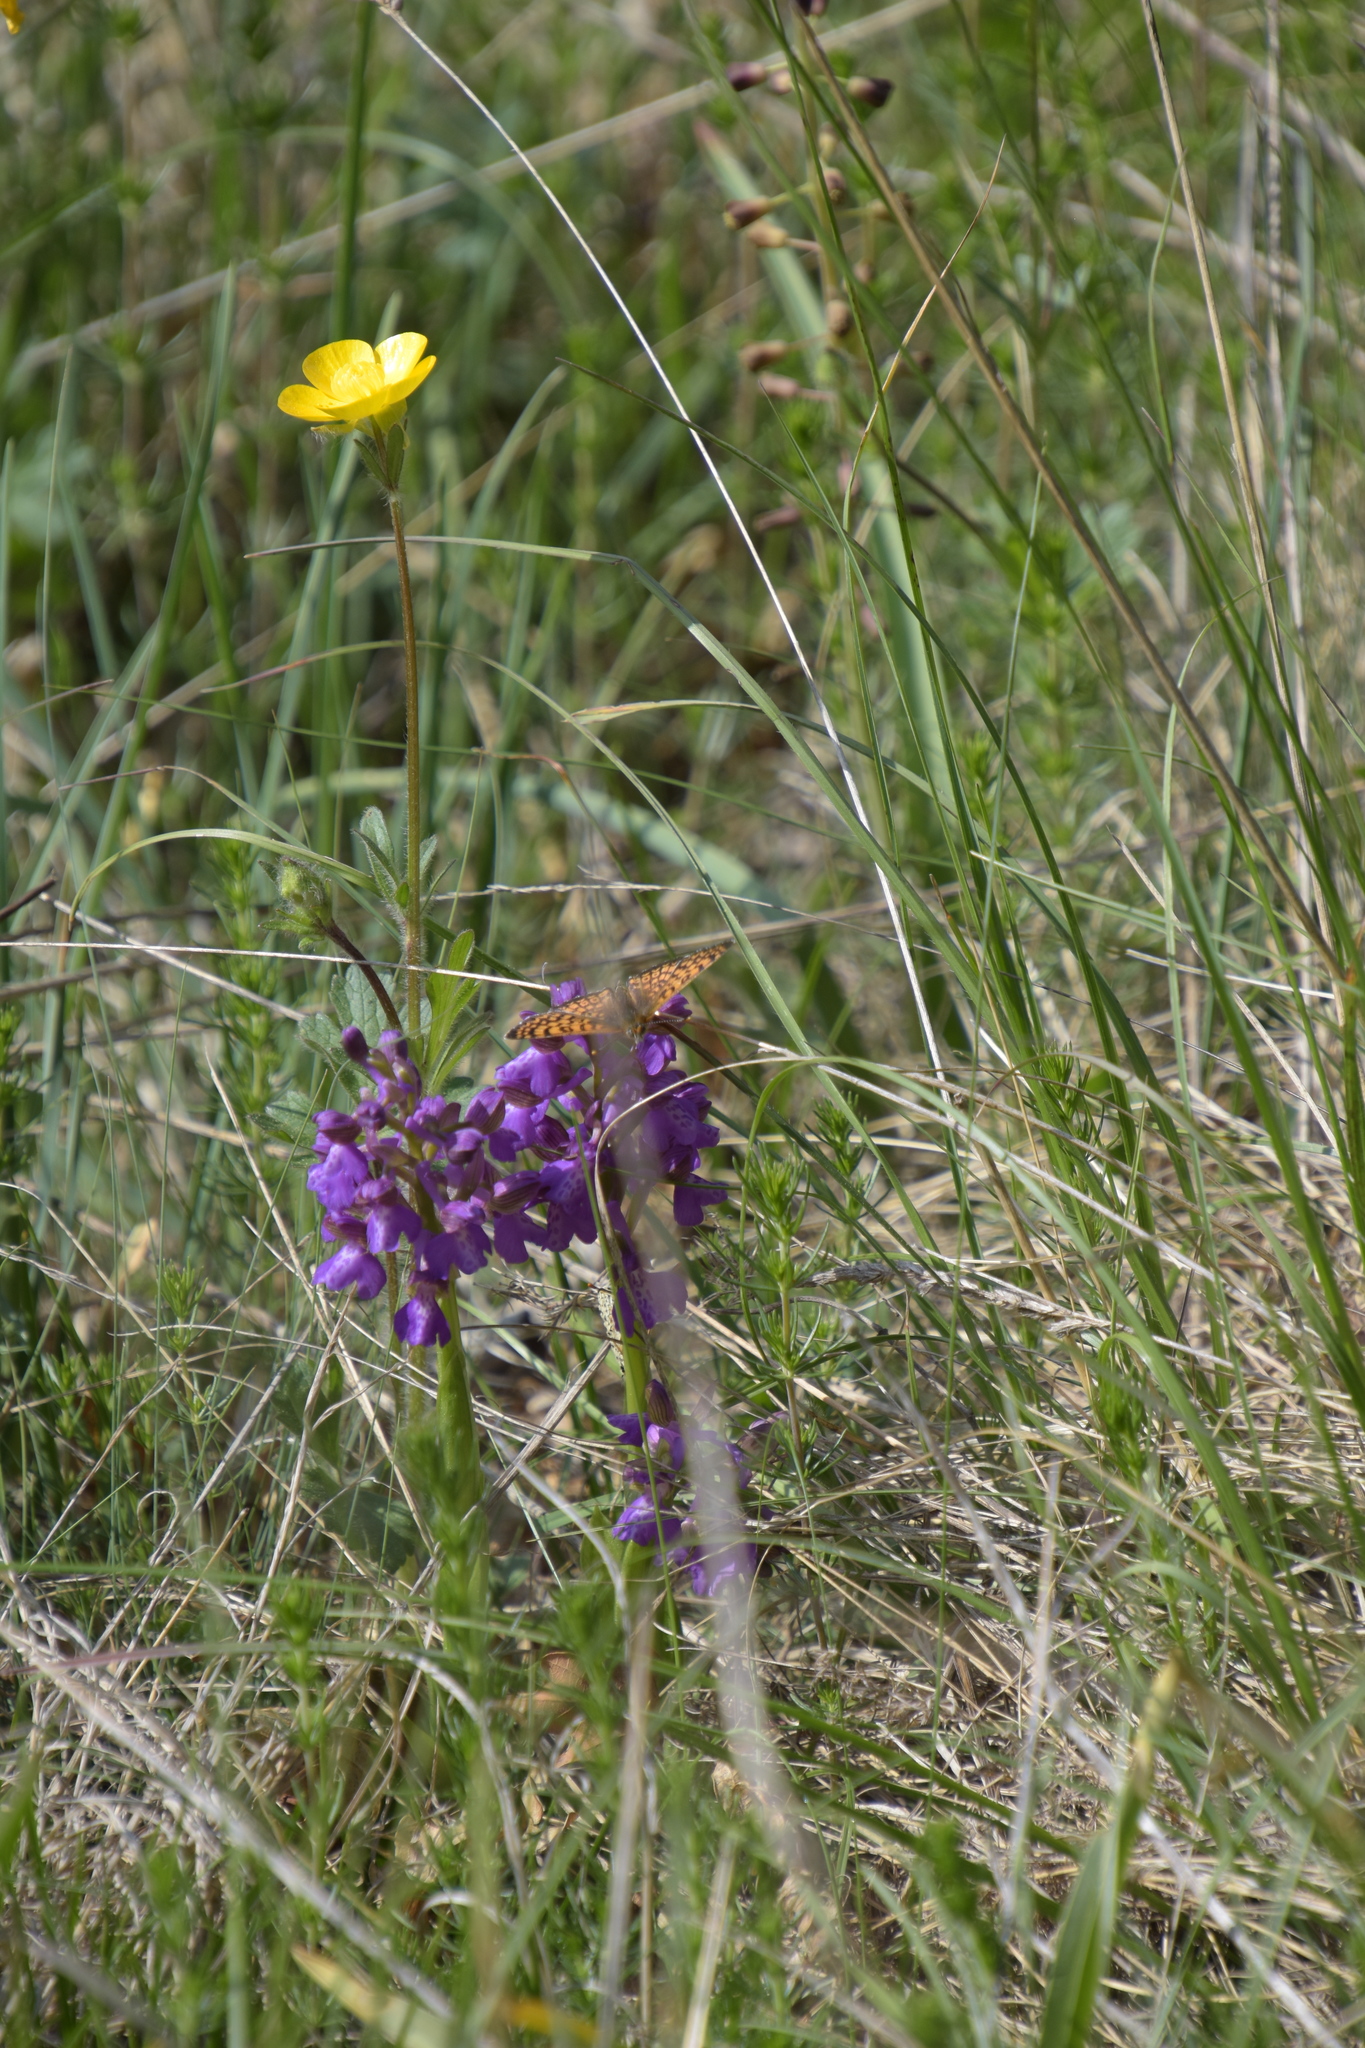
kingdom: Plantae
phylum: Tracheophyta
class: Liliopsida
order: Asparagales
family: Orchidaceae
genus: Anacamptis
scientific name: Anacamptis morio
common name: Green-winged orchid
